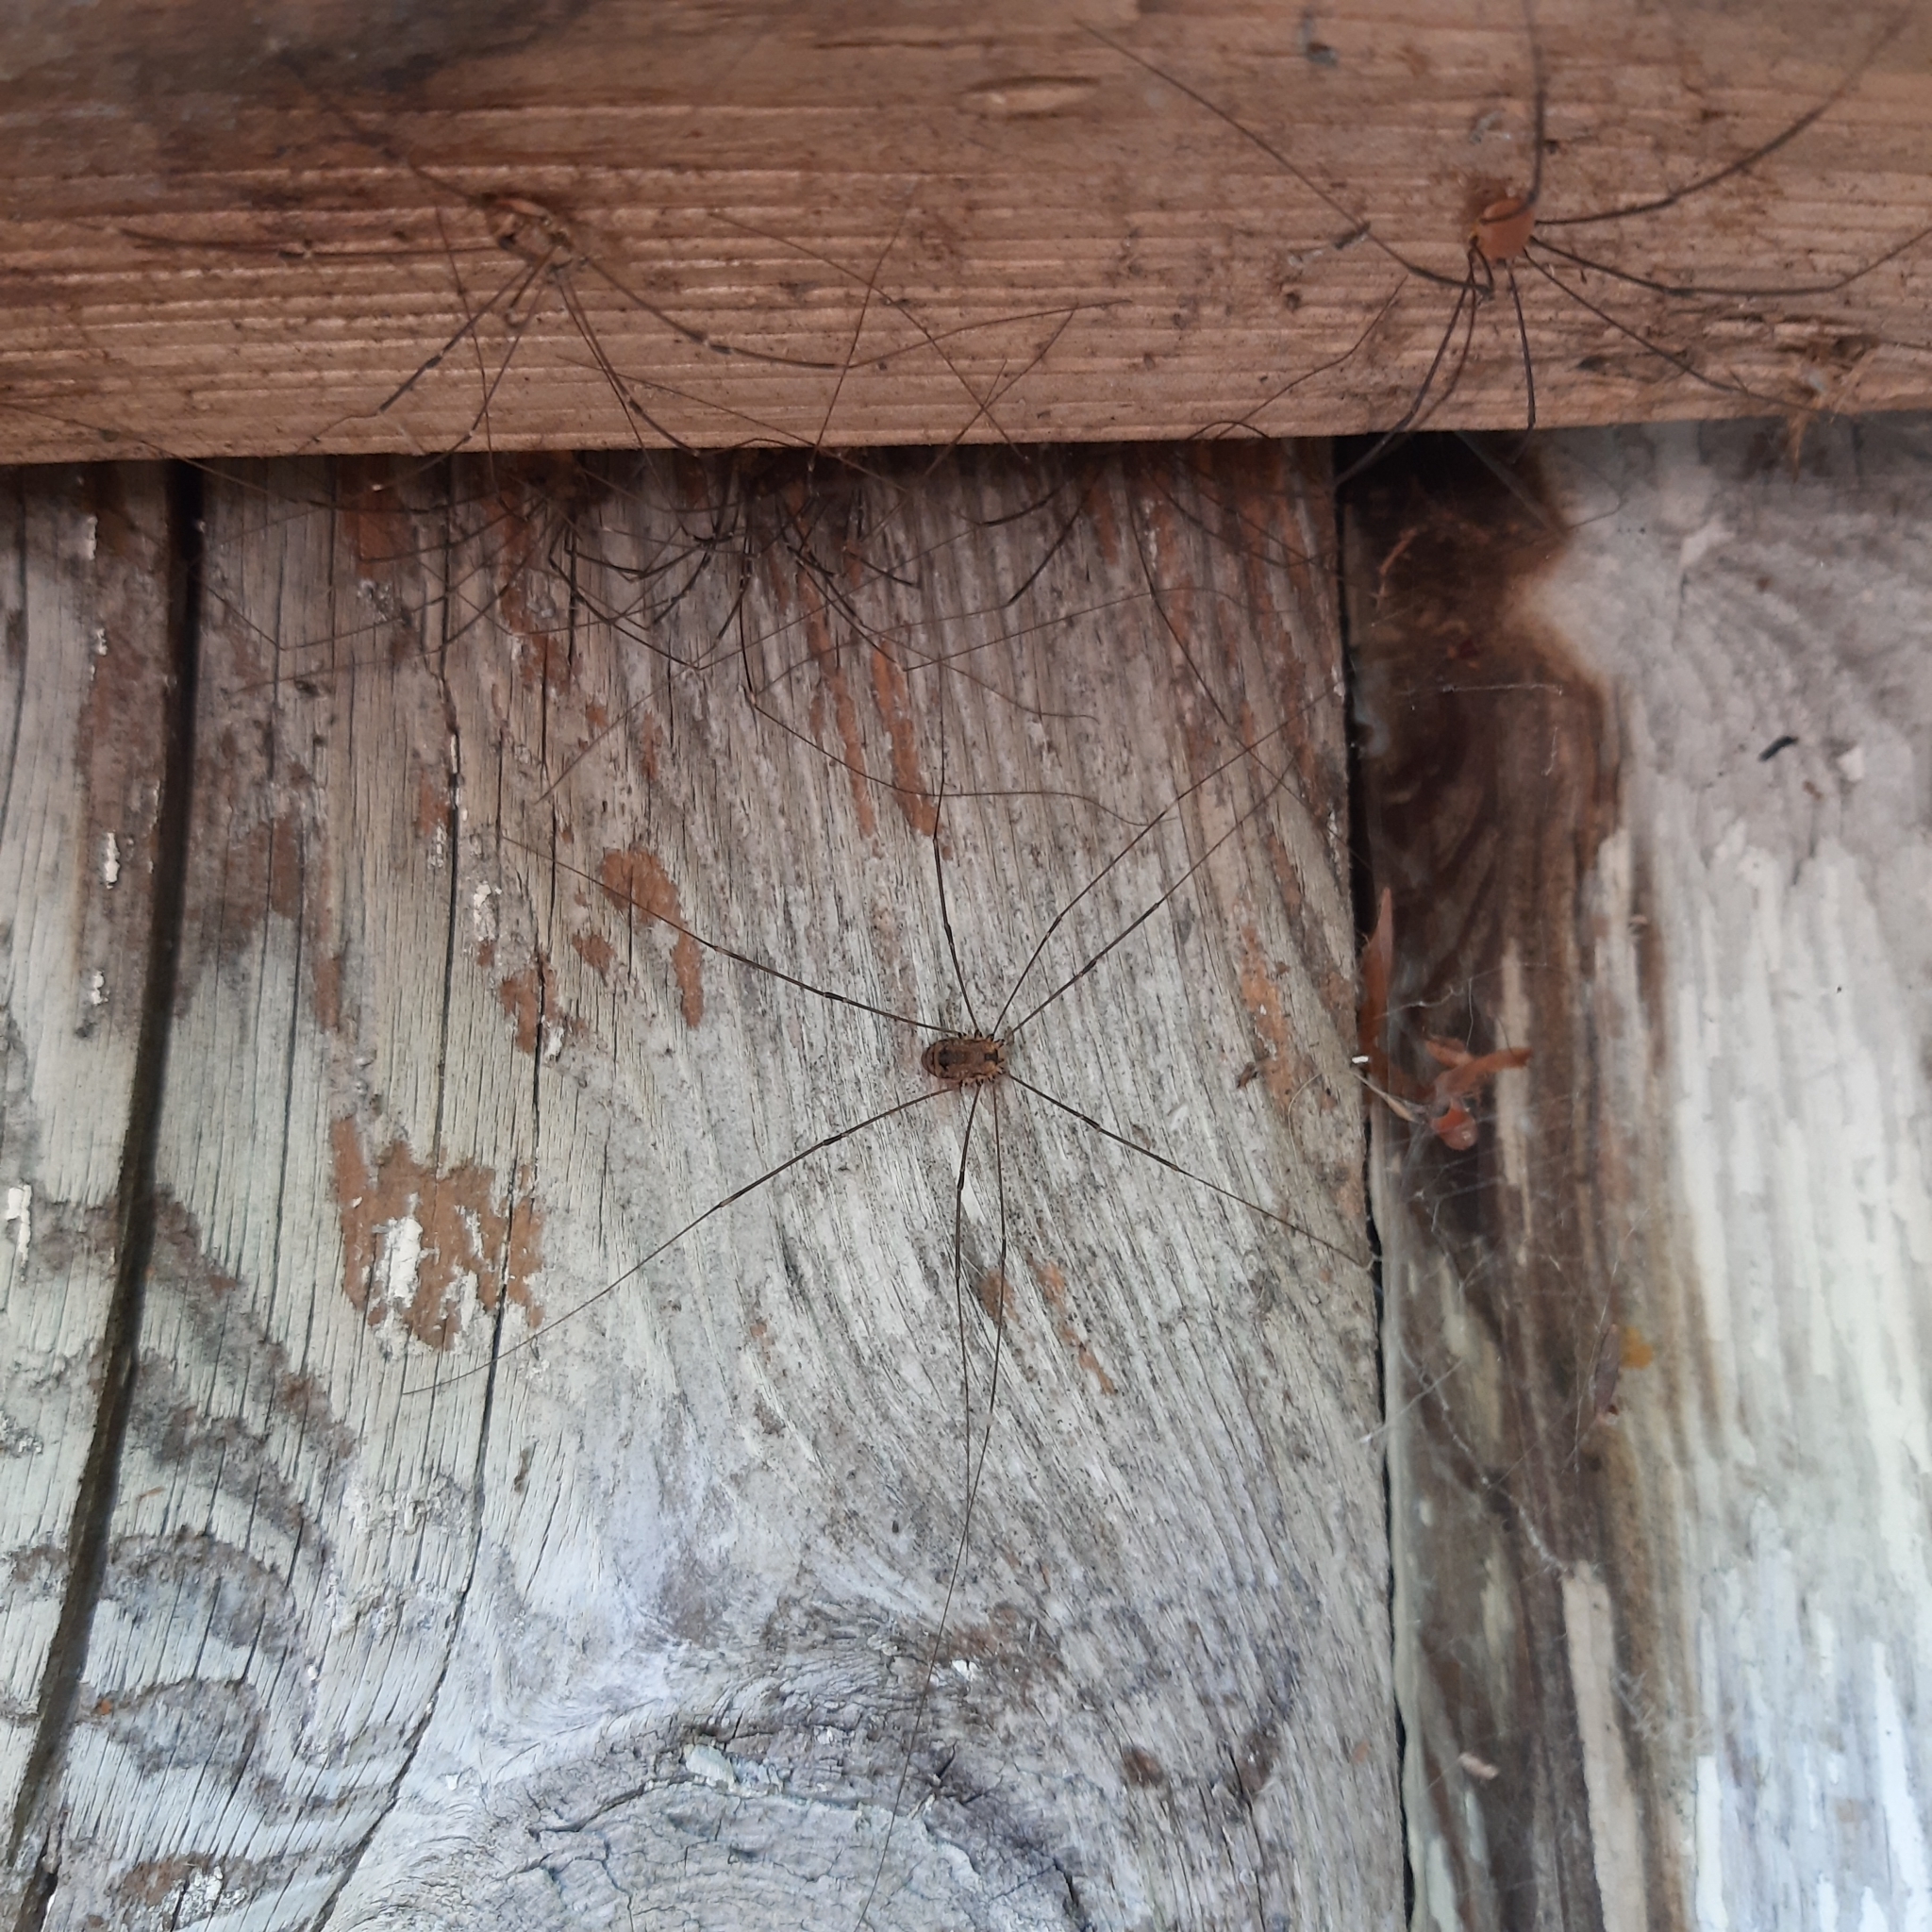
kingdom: Animalia
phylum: Arthropoda
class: Arachnida
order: Opiliones
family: Sclerosomatidae
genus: Leiobunum
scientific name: Leiobunum rotundum
